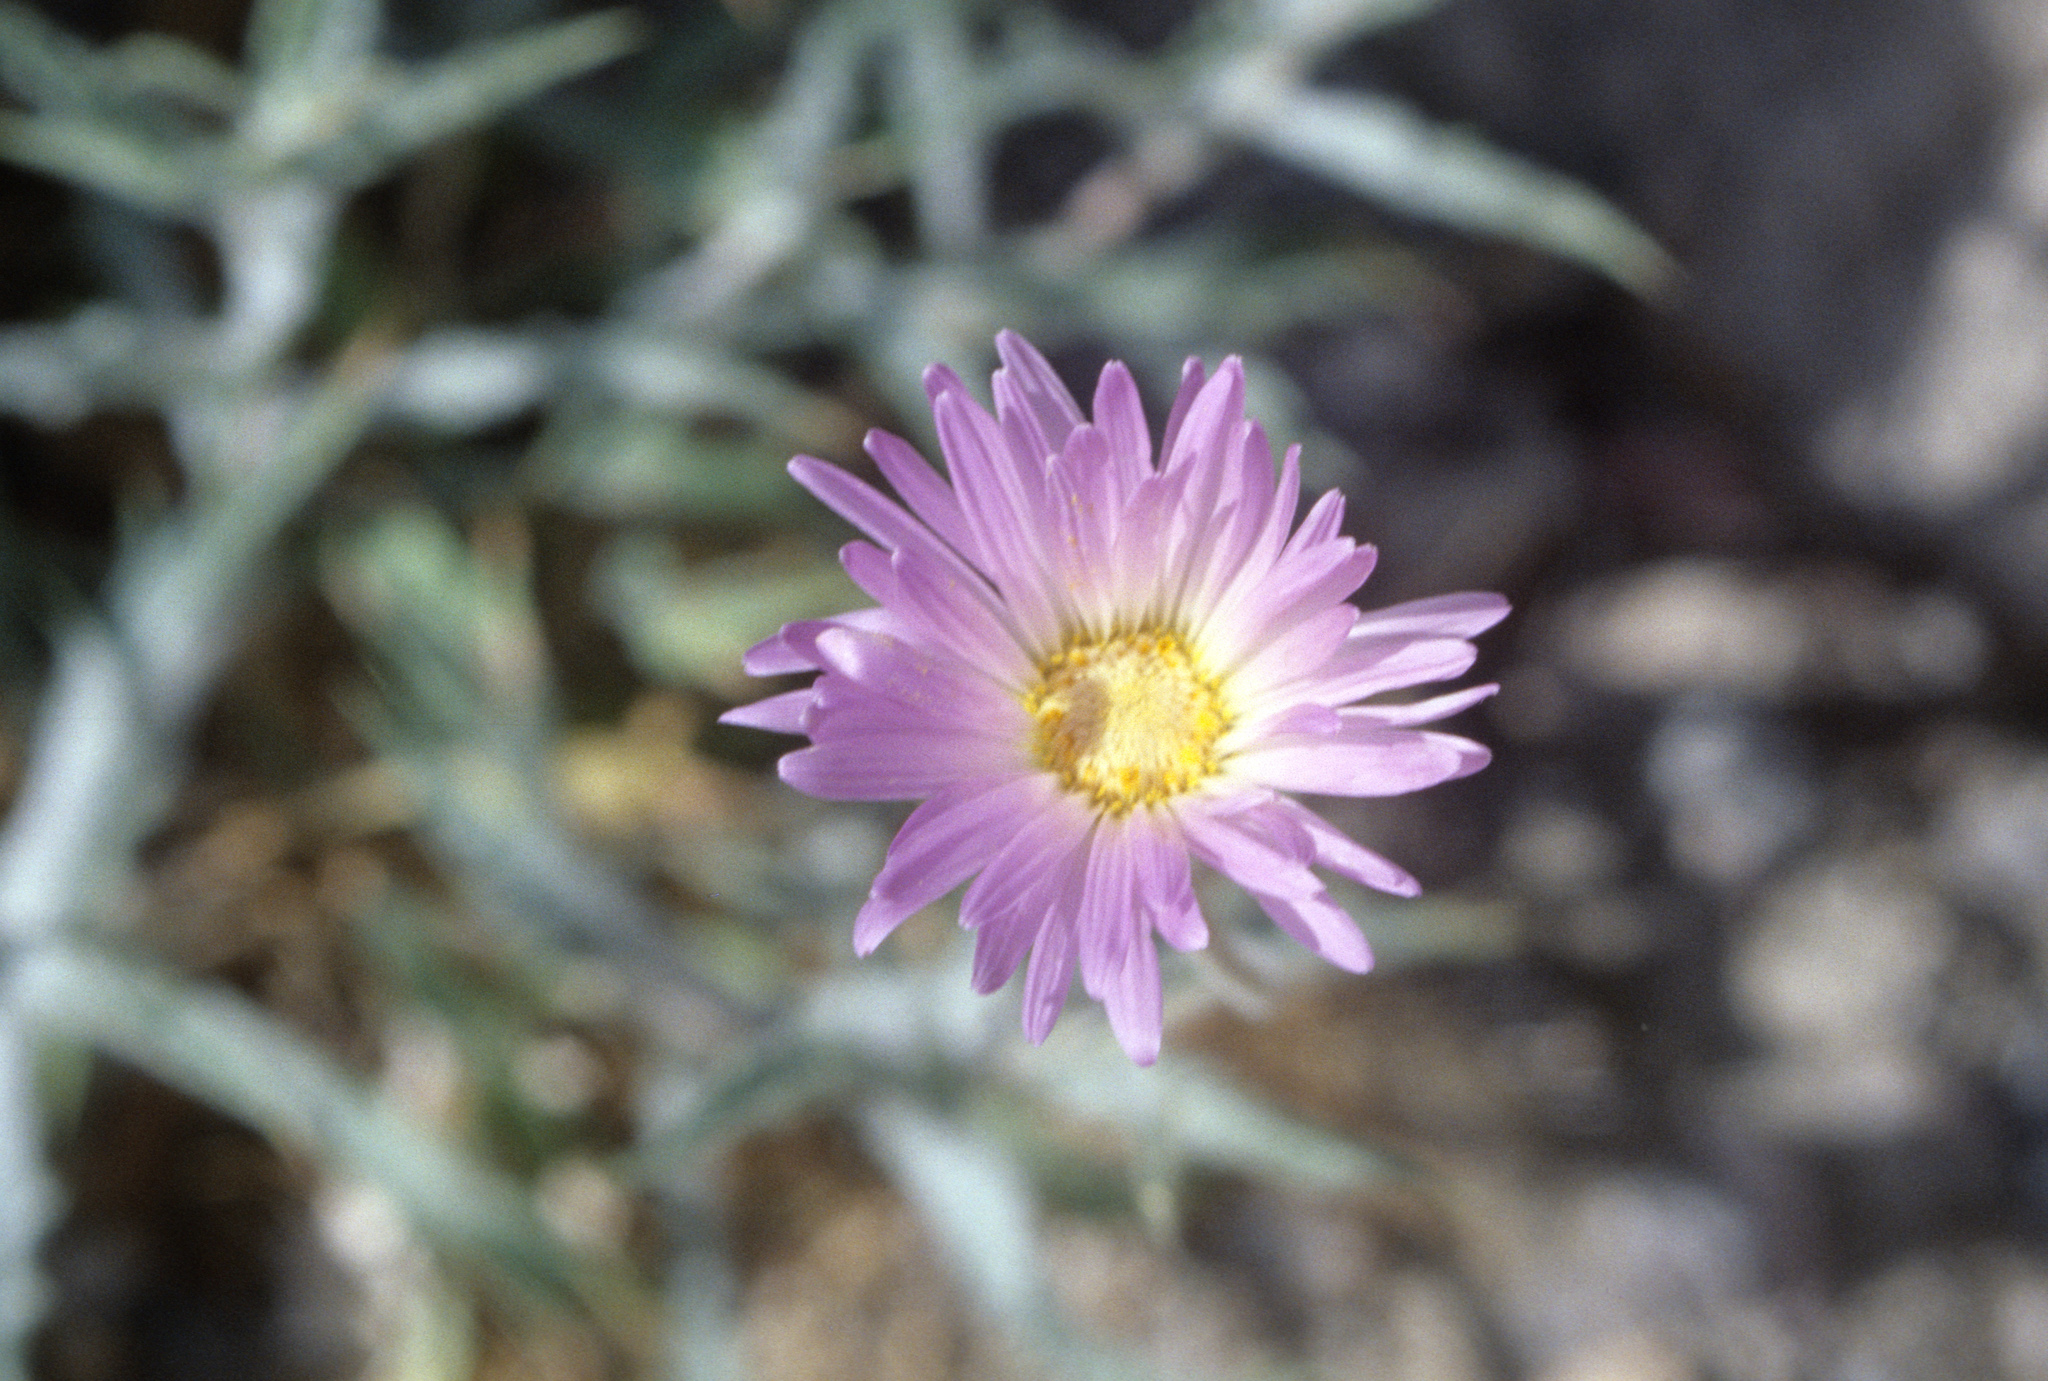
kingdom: Plantae
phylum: Tracheophyta
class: Magnoliopsida
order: Asterales
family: Asteraceae
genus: Xylorhiza
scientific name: Xylorhiza tortifolia
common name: Hurt-leaf woody-aster
